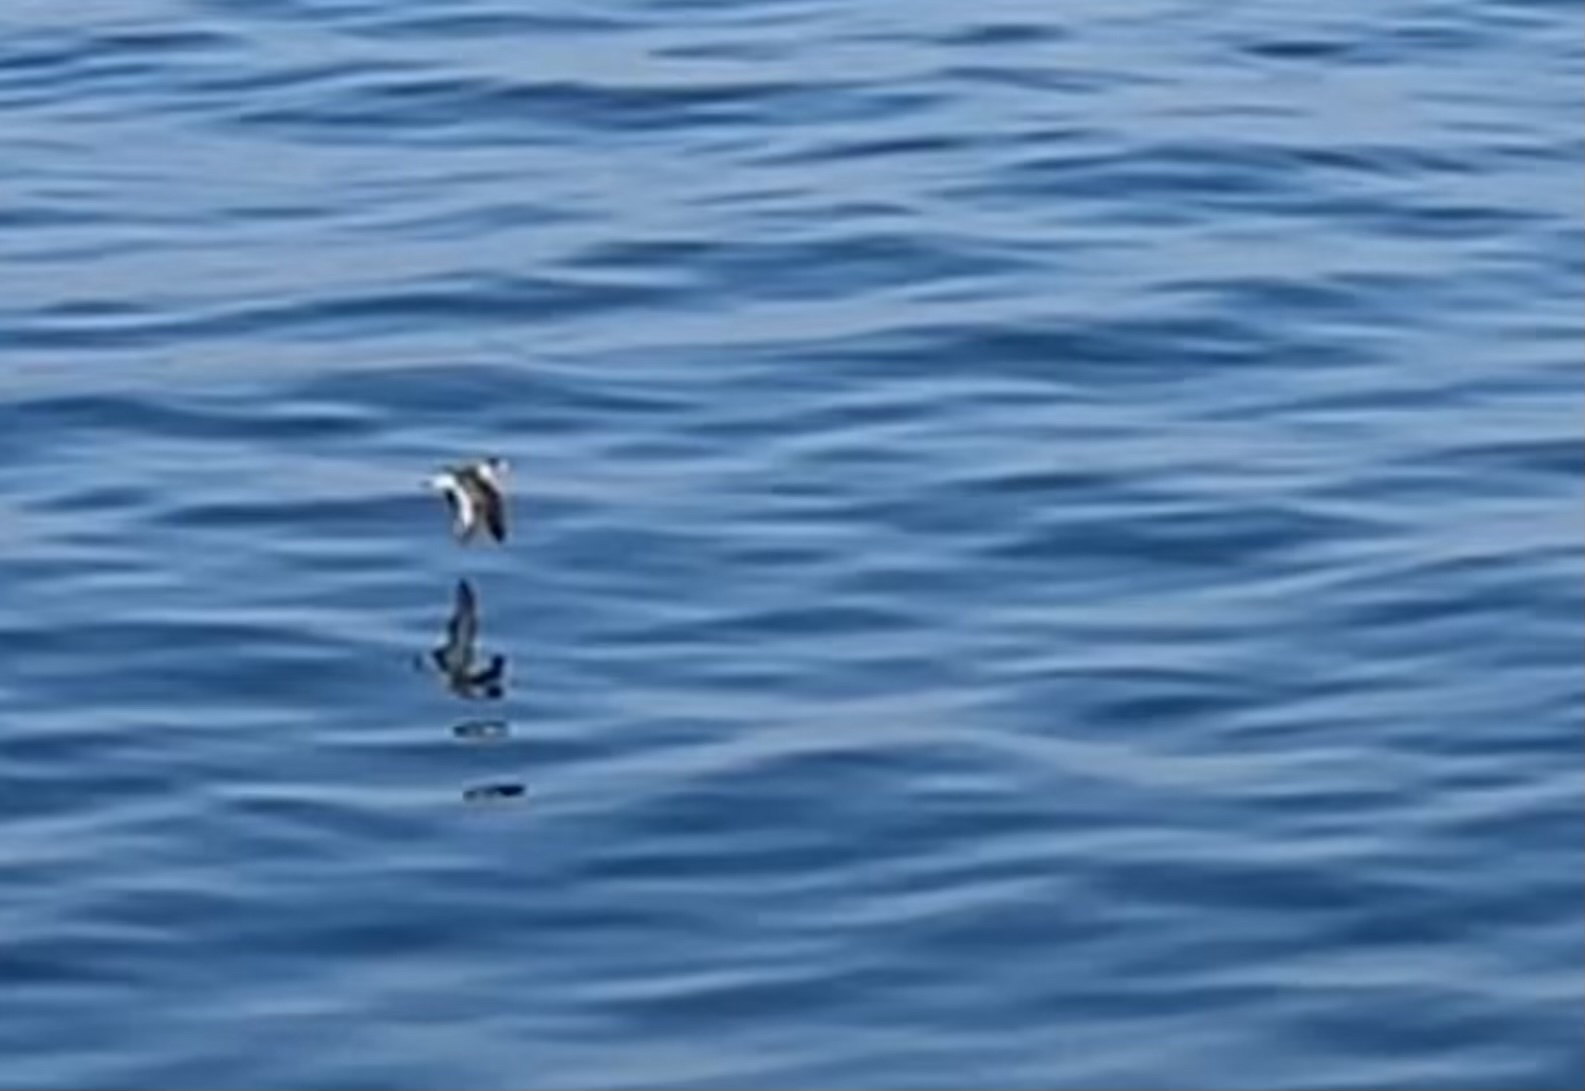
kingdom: Animalia
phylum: Chordata
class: Aves
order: Procellariiformes
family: Procellariidae
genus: Puffinus
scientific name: Puffinus yelkouan
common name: Yelkouan shearwater
